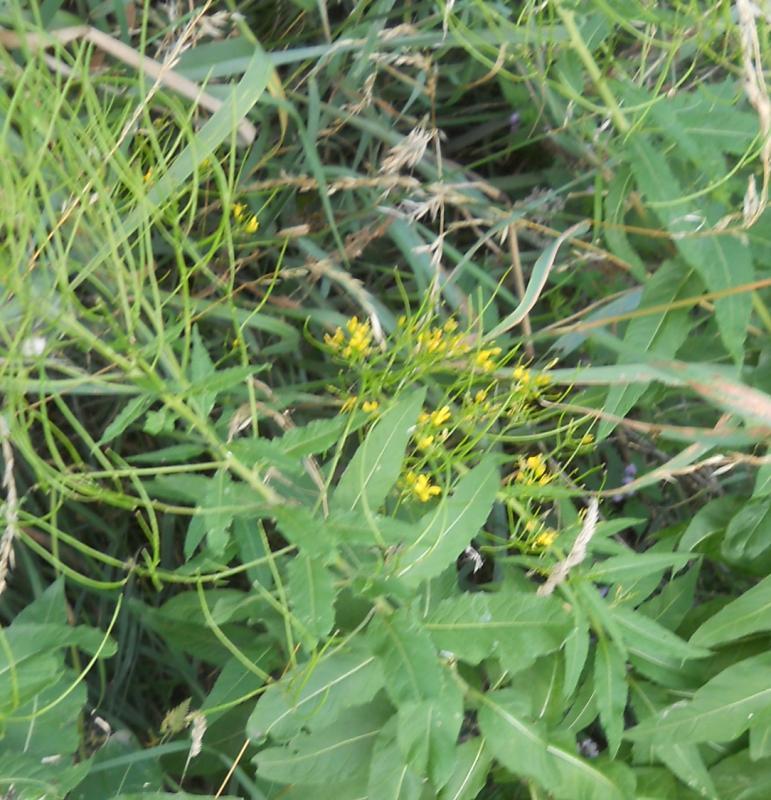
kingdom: Plantae
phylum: Tracheophyta
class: Magnoliopsida
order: Brassicales
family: Brassicaceae
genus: Sisymbrium
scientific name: Sisymbrium strictissimum
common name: Perennial rocket
